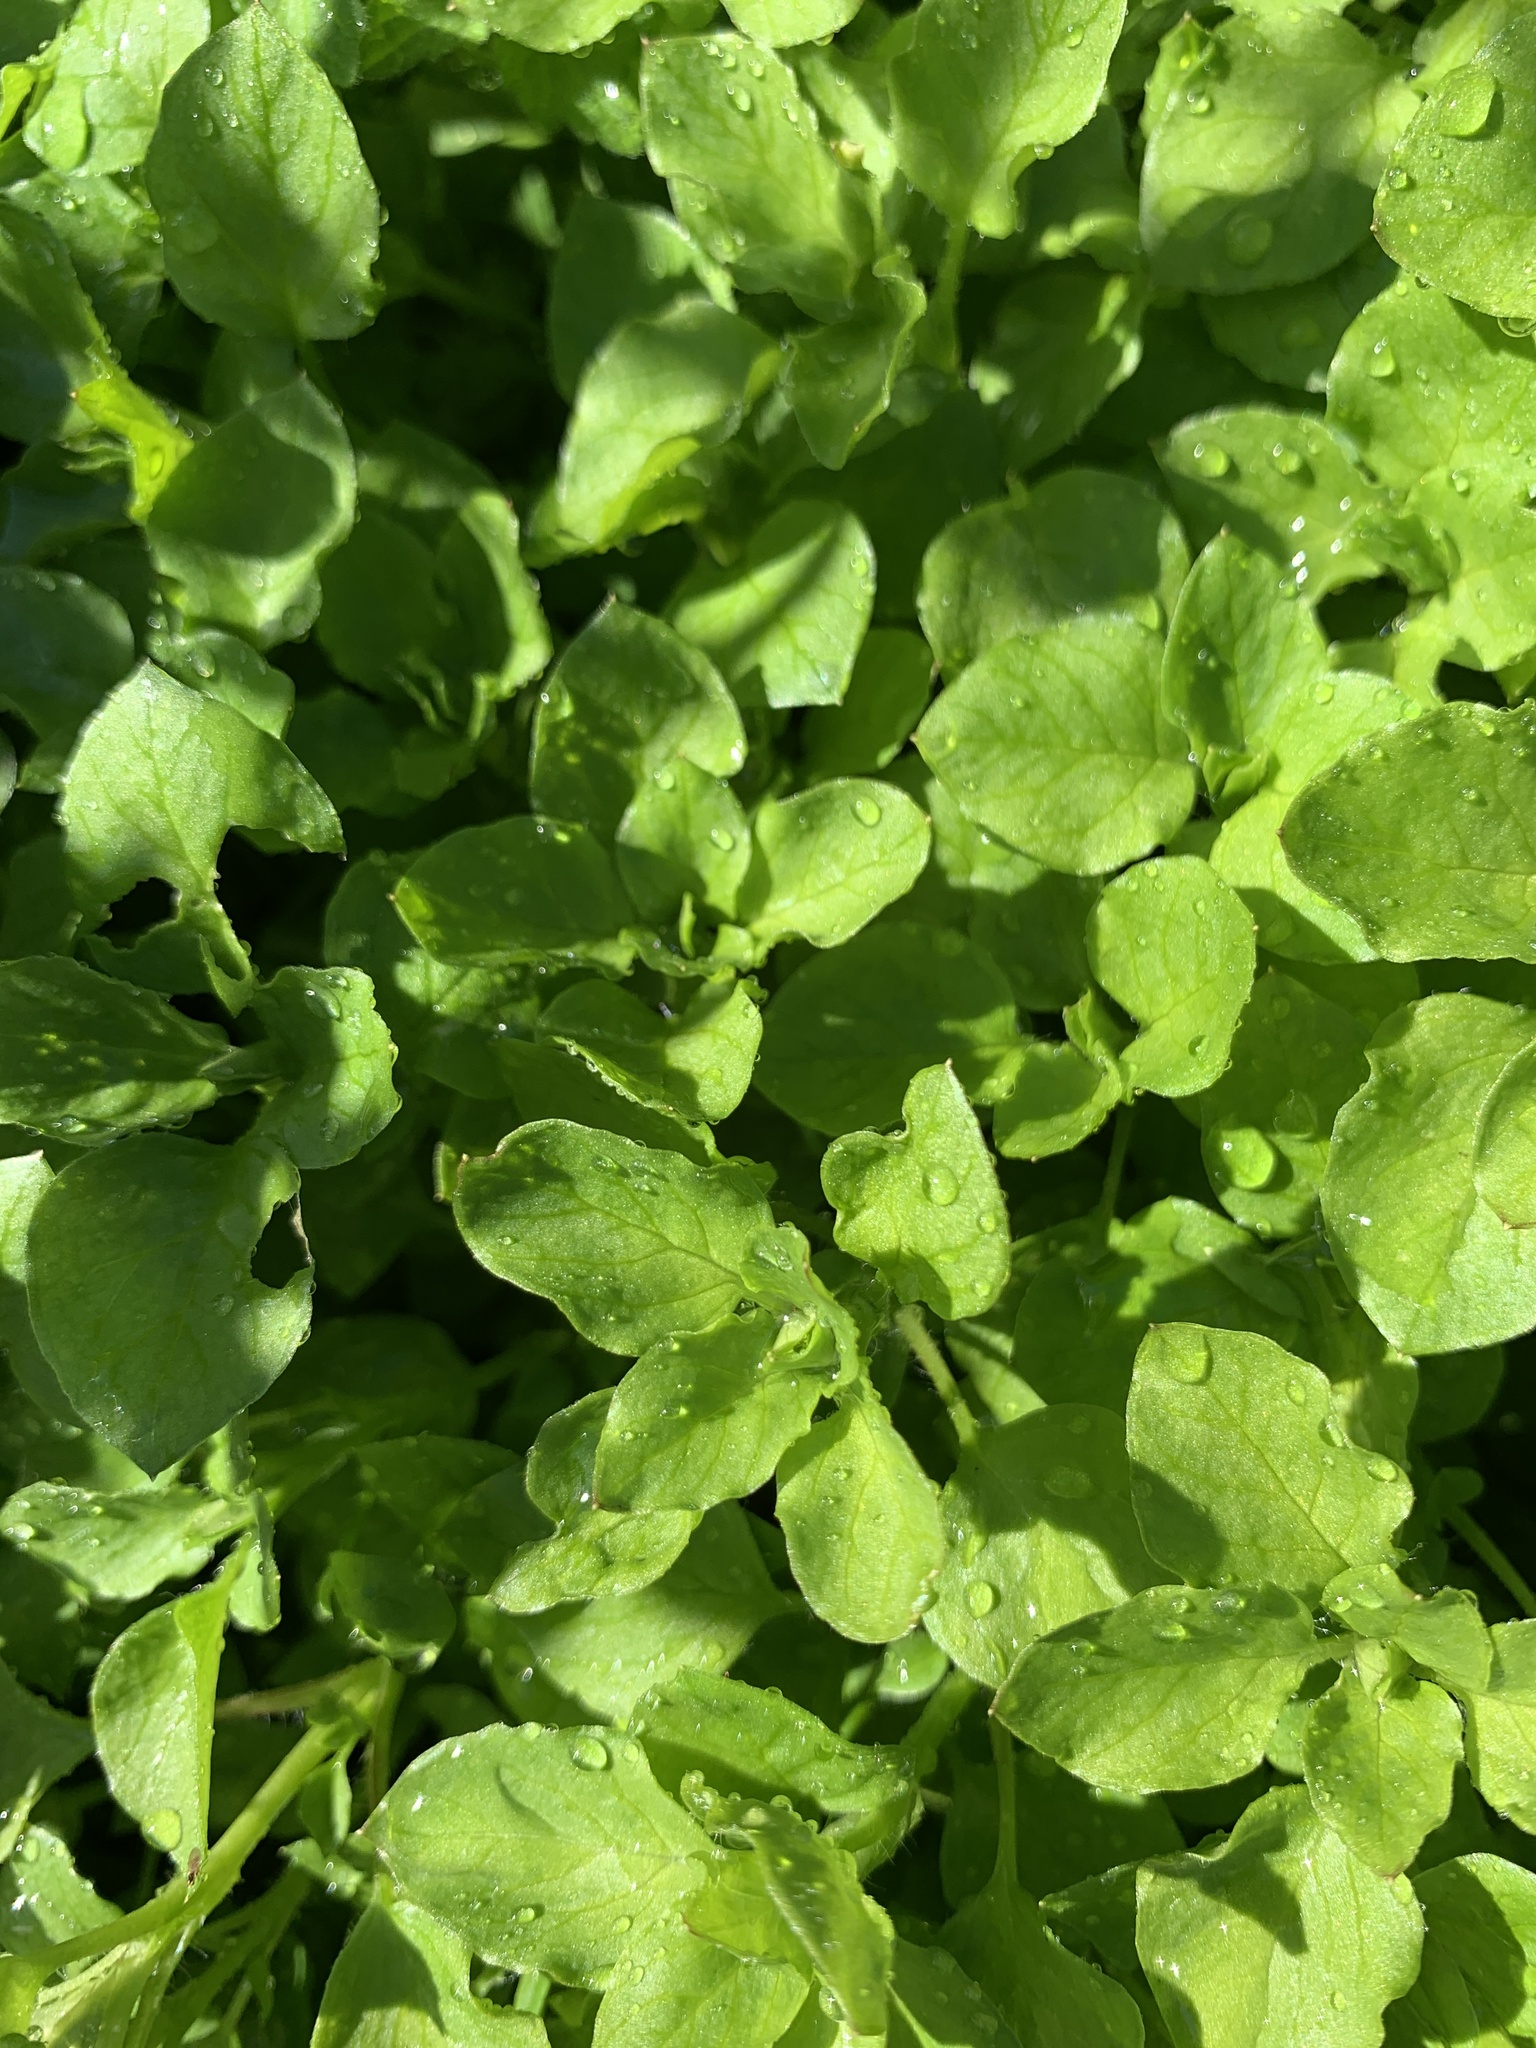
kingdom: Plantae
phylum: Tracheophyta
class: Magnoliopsida
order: Caryophyllales
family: Caryophyllaceae
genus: Stellaria
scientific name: Stellaria media
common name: Common chickweed
